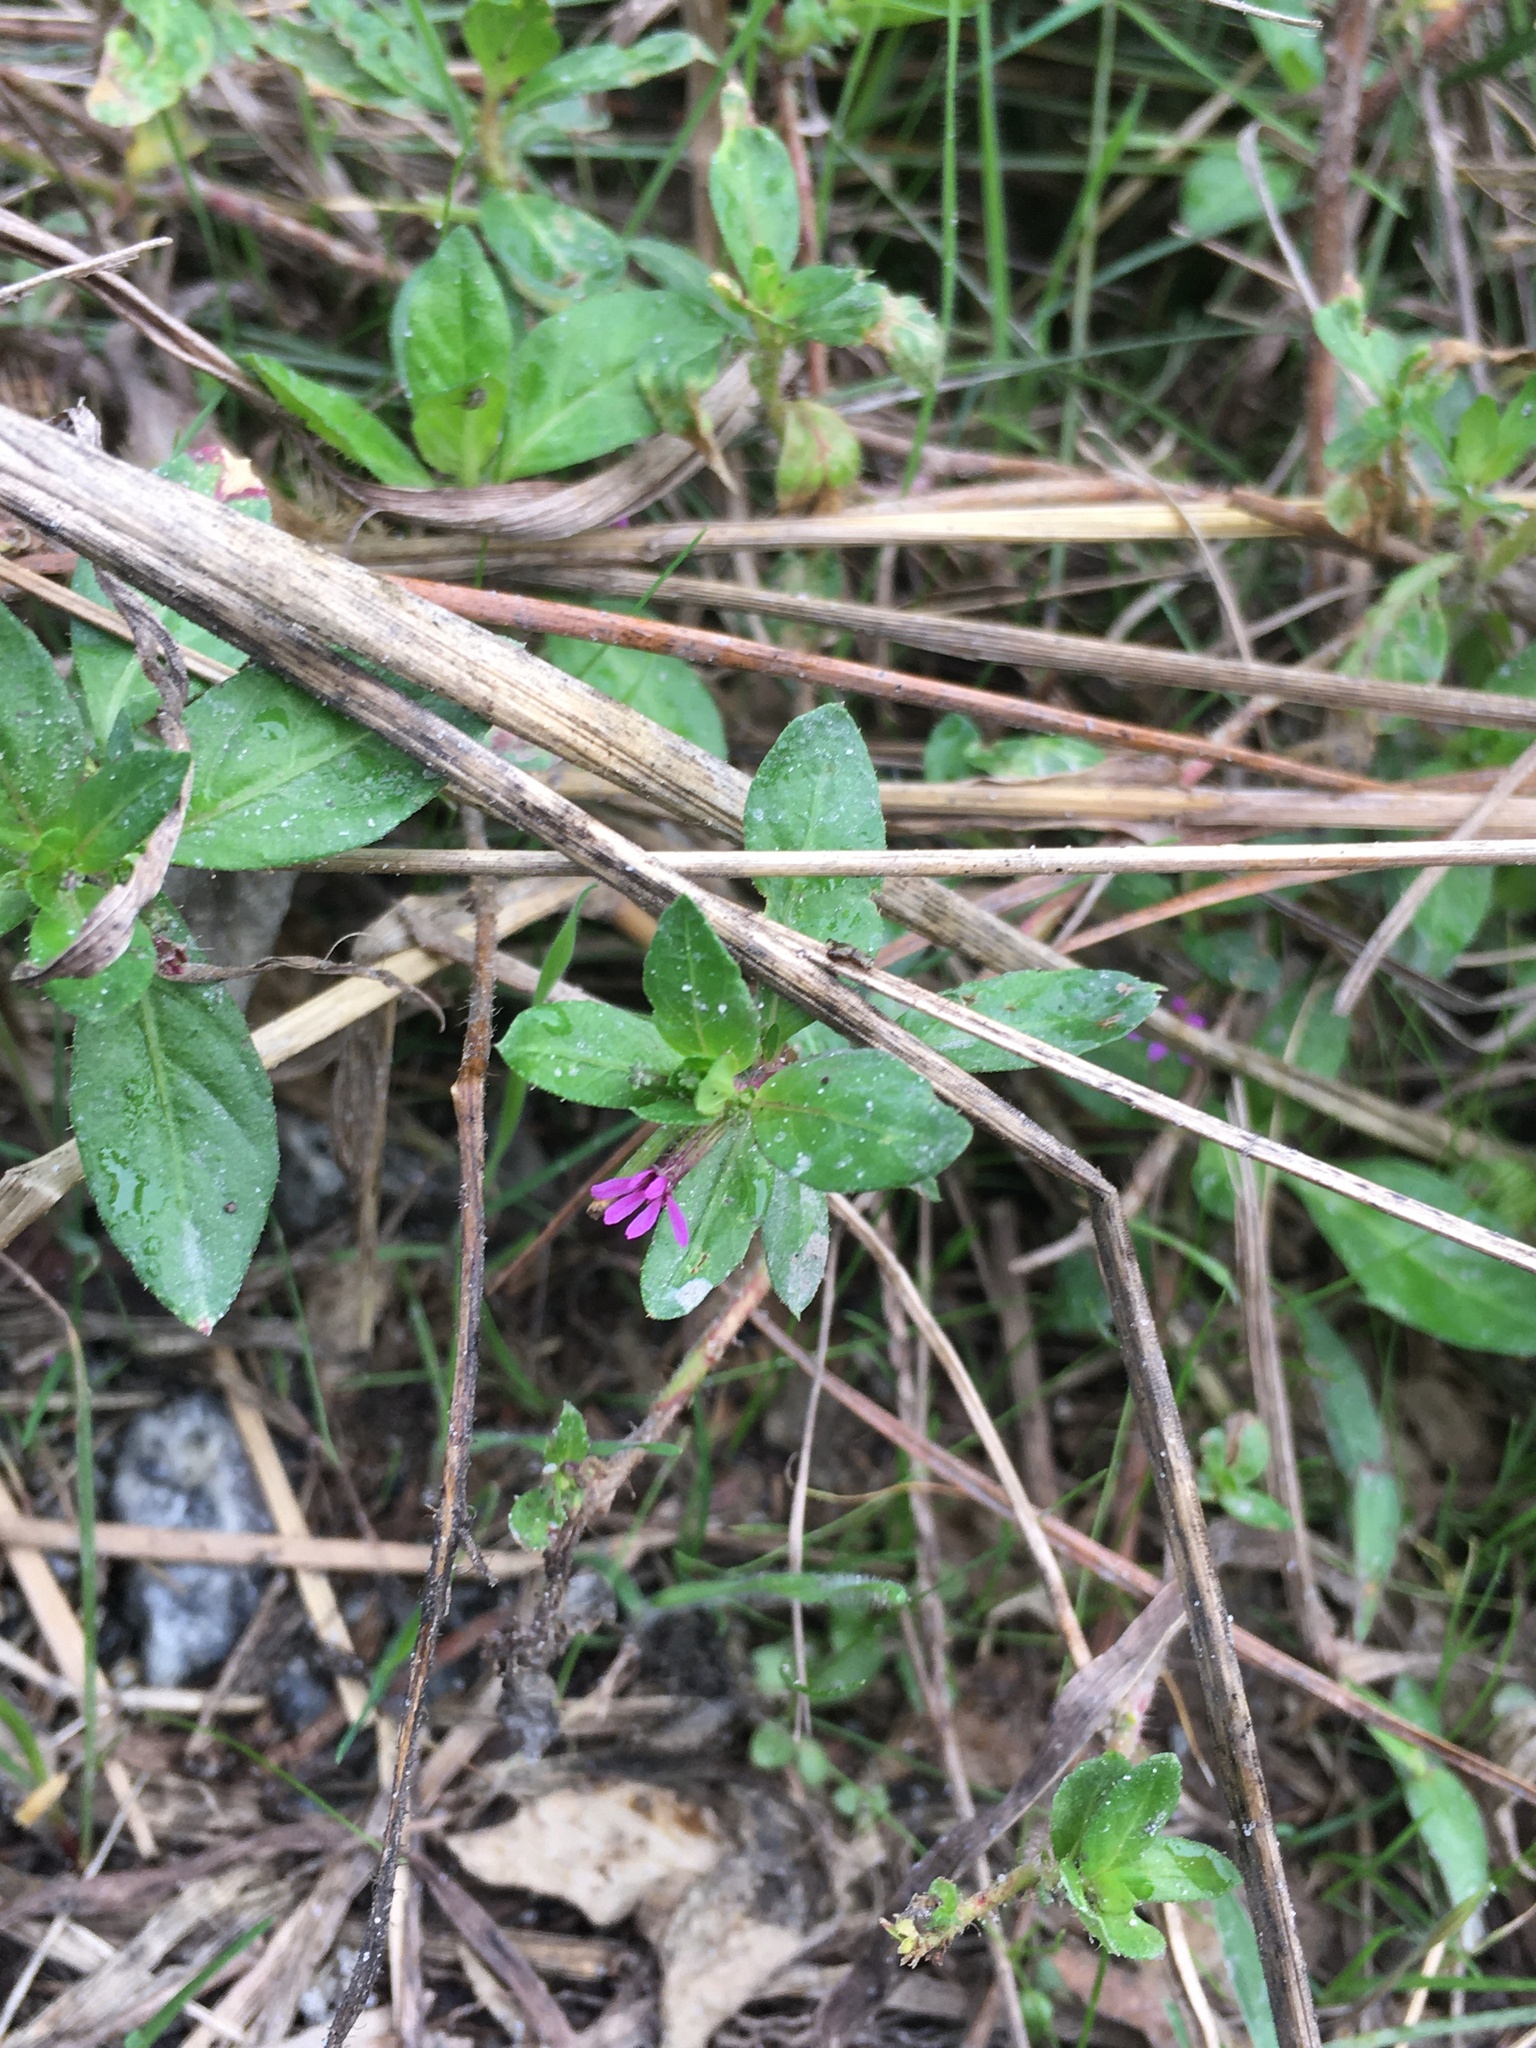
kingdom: Plantae
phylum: Tracheophyta
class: Magnoliopsida
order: Myrtales
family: Lythraceae
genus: Cuphea
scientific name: Cuphea carthagenensis
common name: Colombian waxweed
